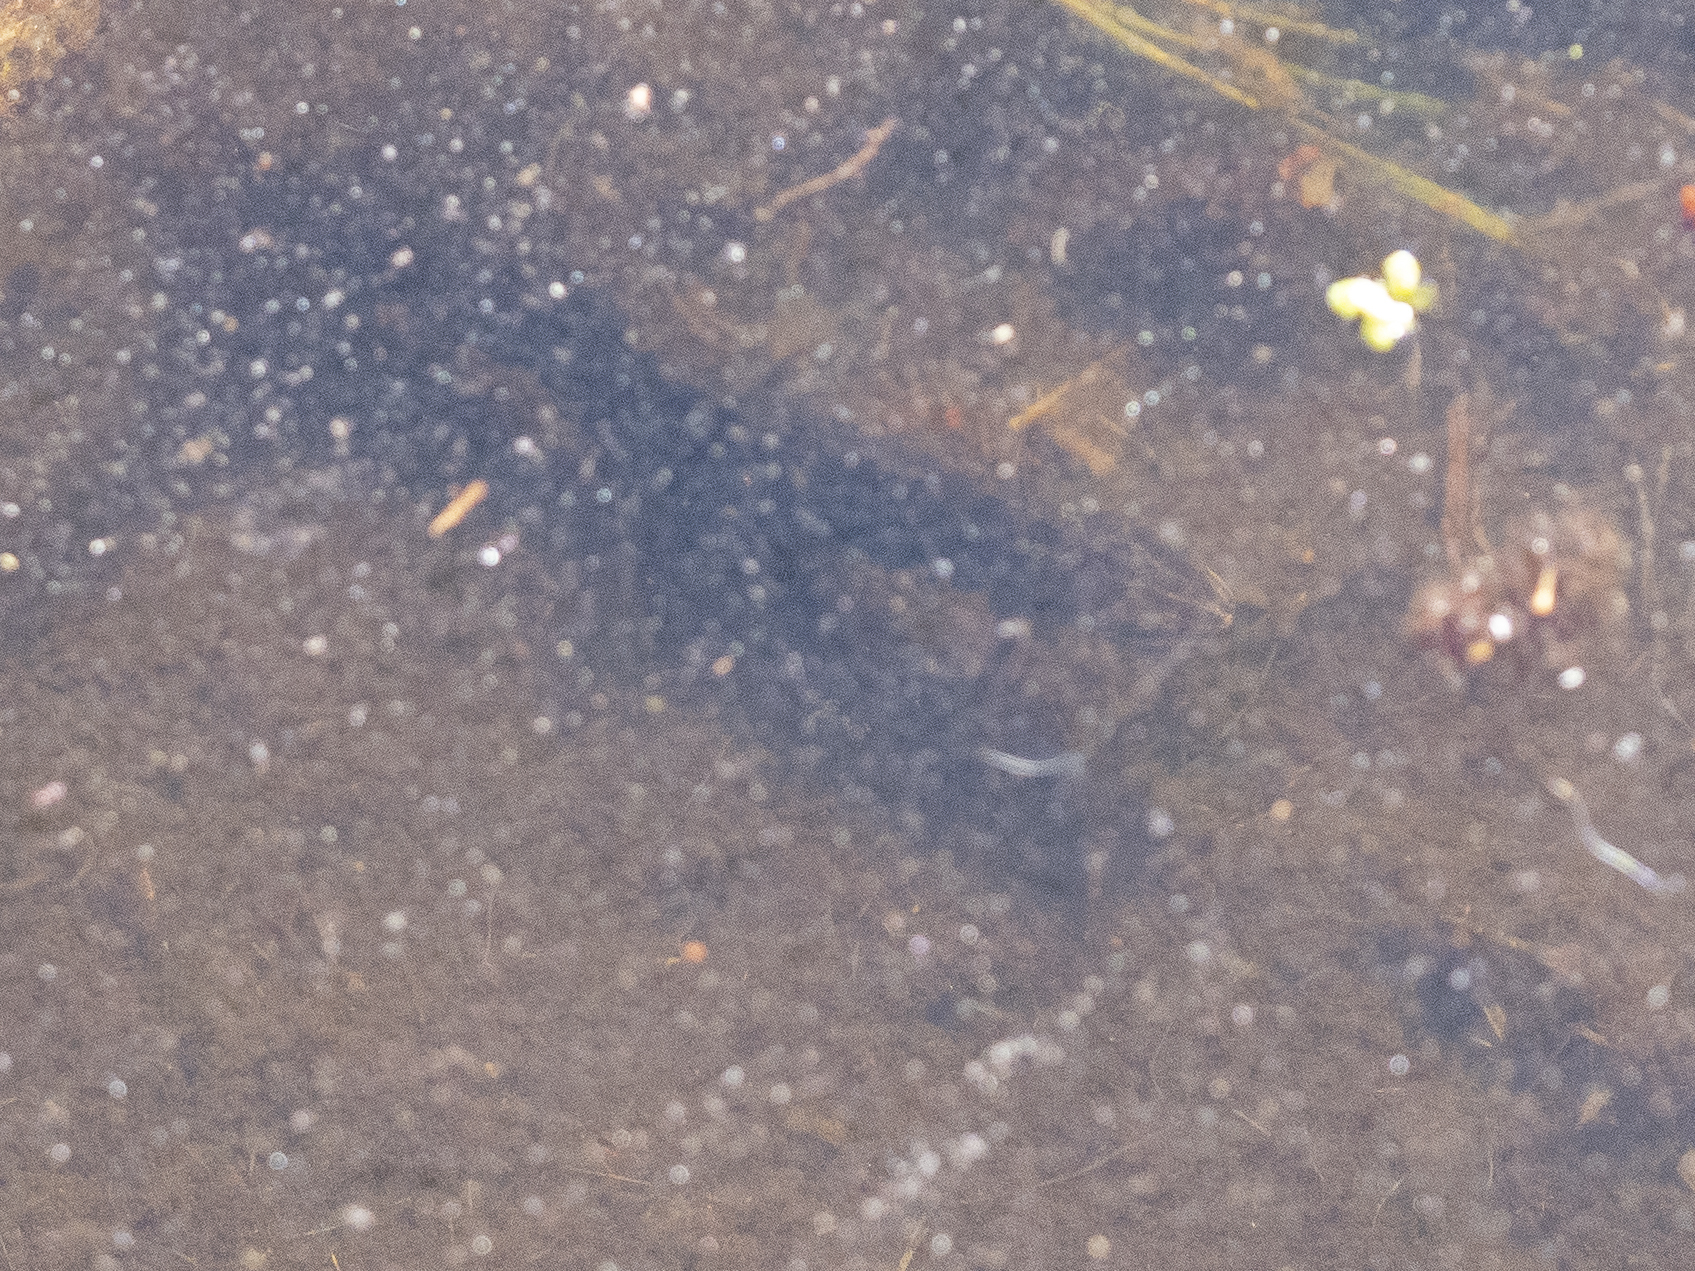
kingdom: Animalia
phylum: Chordata
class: Amphibia
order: Caudata
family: Salamandridae
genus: Lissotriton
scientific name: Lissotriton vulgaris
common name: Smooth newt
